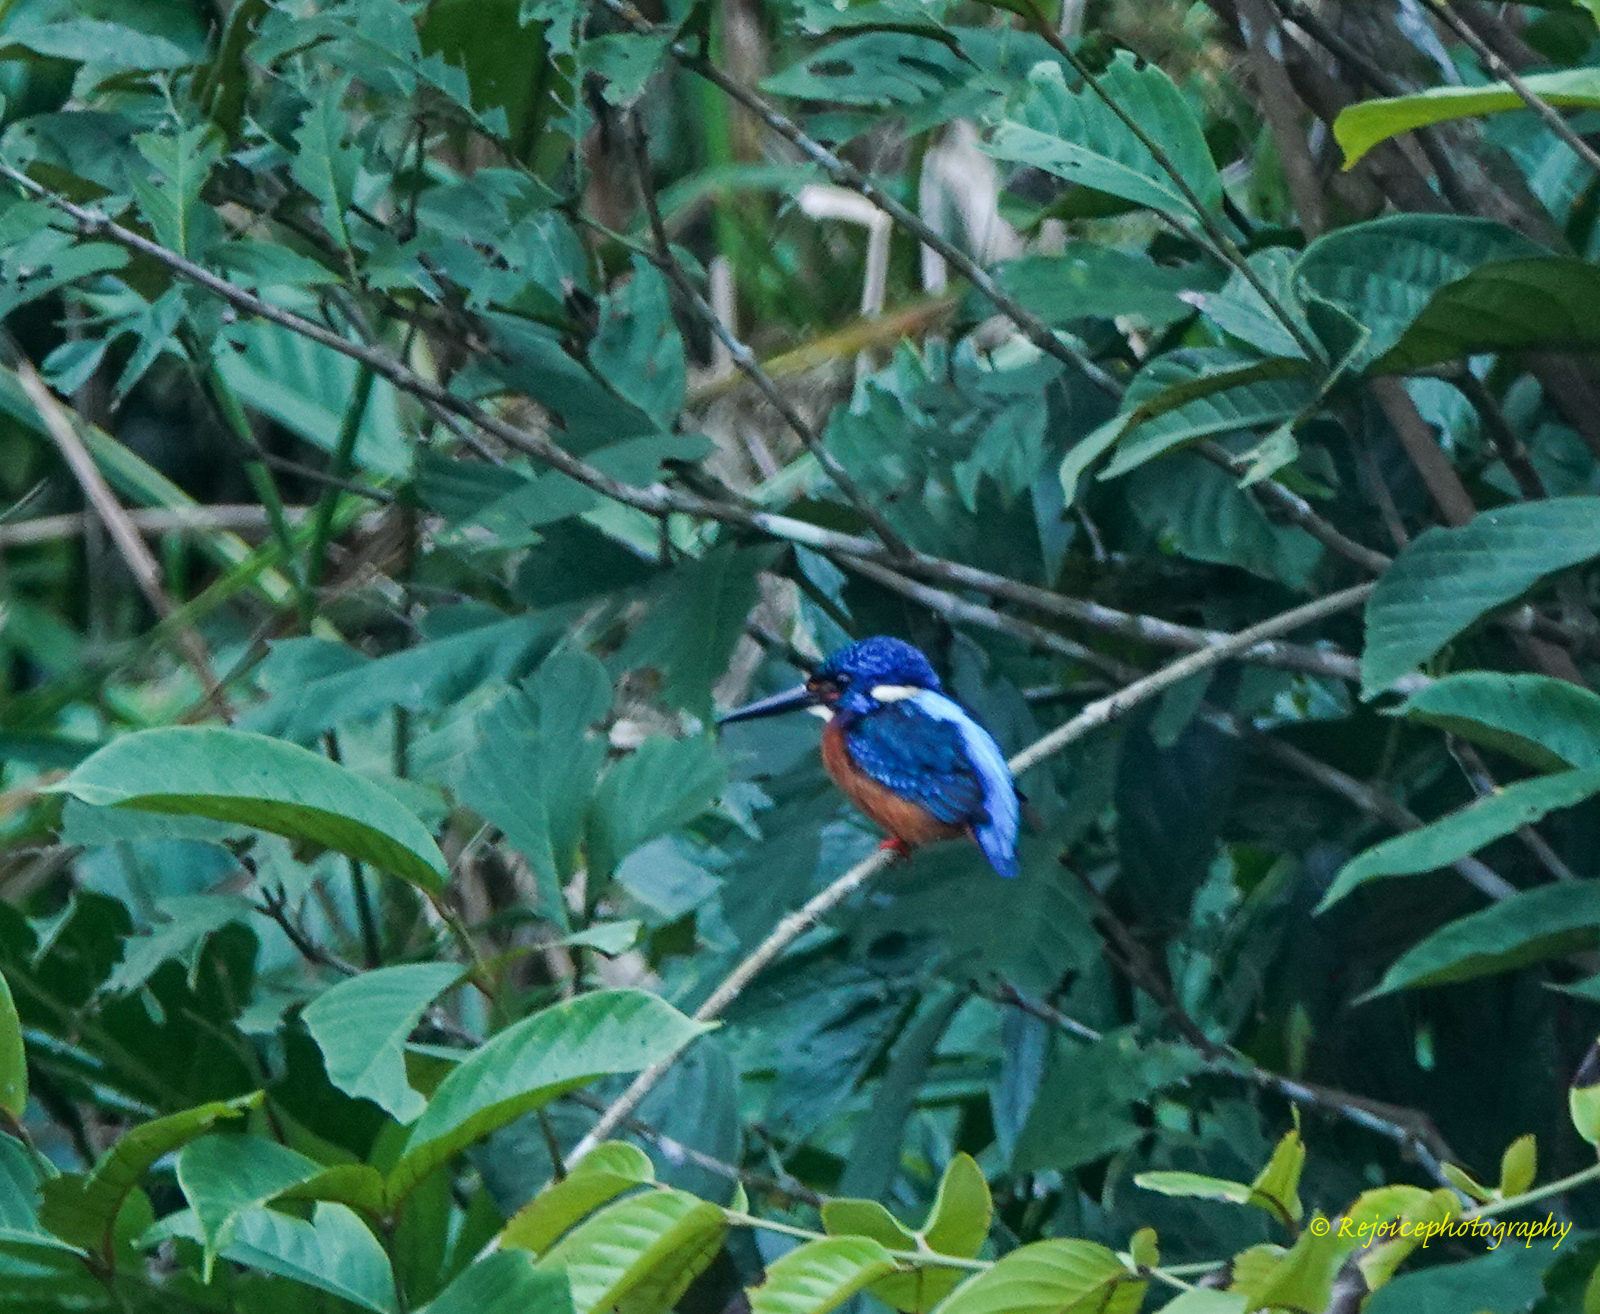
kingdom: Animalia
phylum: Chordata
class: Aves
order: Coraciiformes
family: Alcedinidae
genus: Alcedo
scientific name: Alcedo meninting
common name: Blue-eared kingfisher
